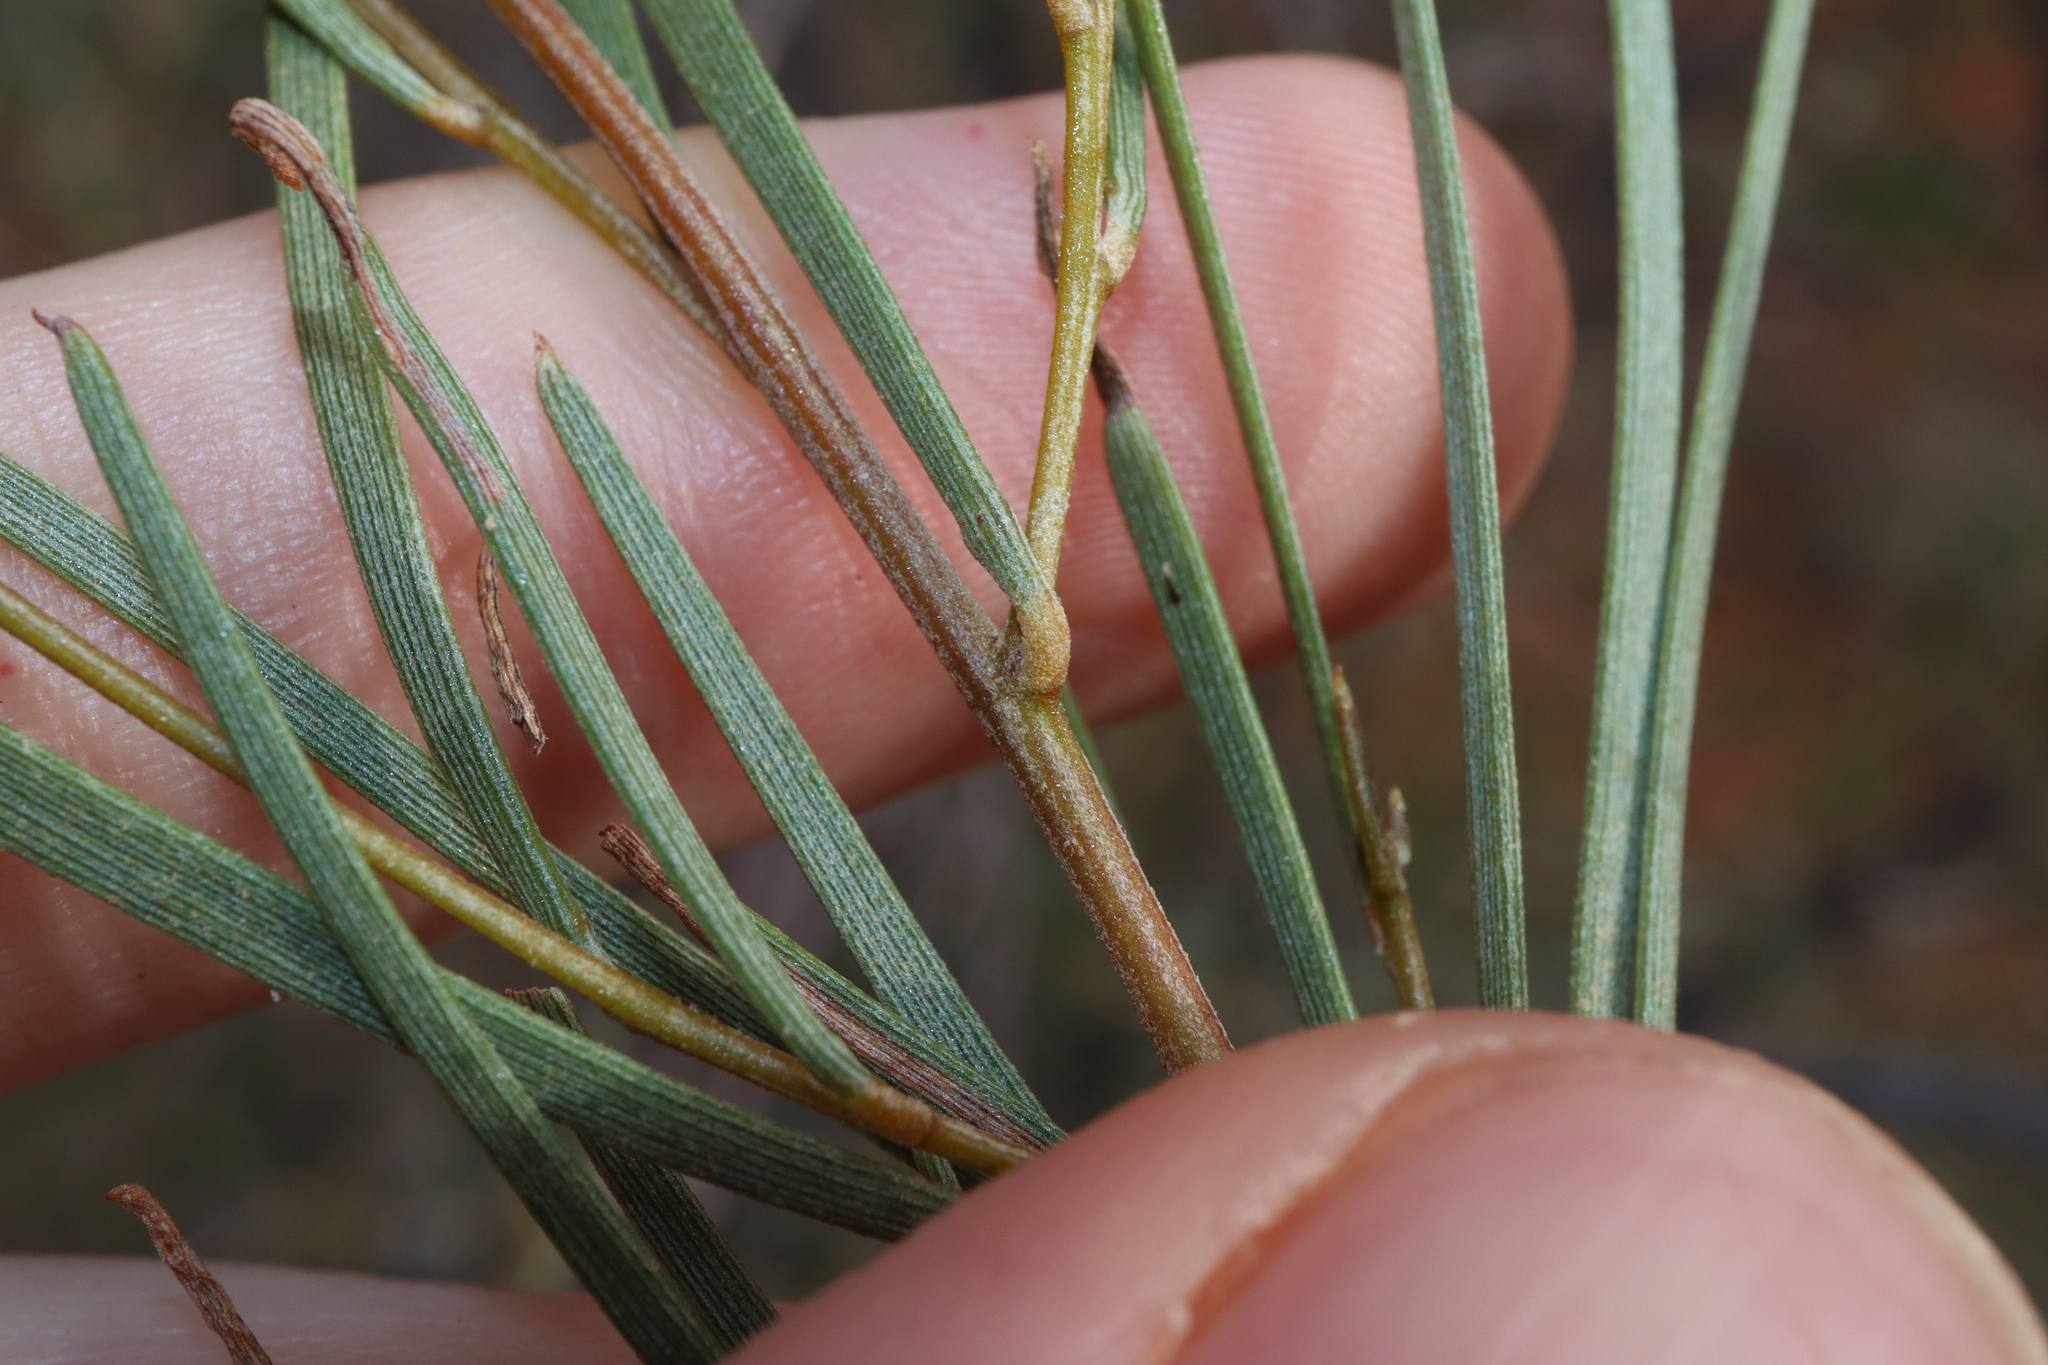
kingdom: Plantae
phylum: Tracheophyta
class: Magnoliopsida
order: Fabales
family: Fabaceae
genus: Acacia
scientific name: Acacia aneura
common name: Mulga
